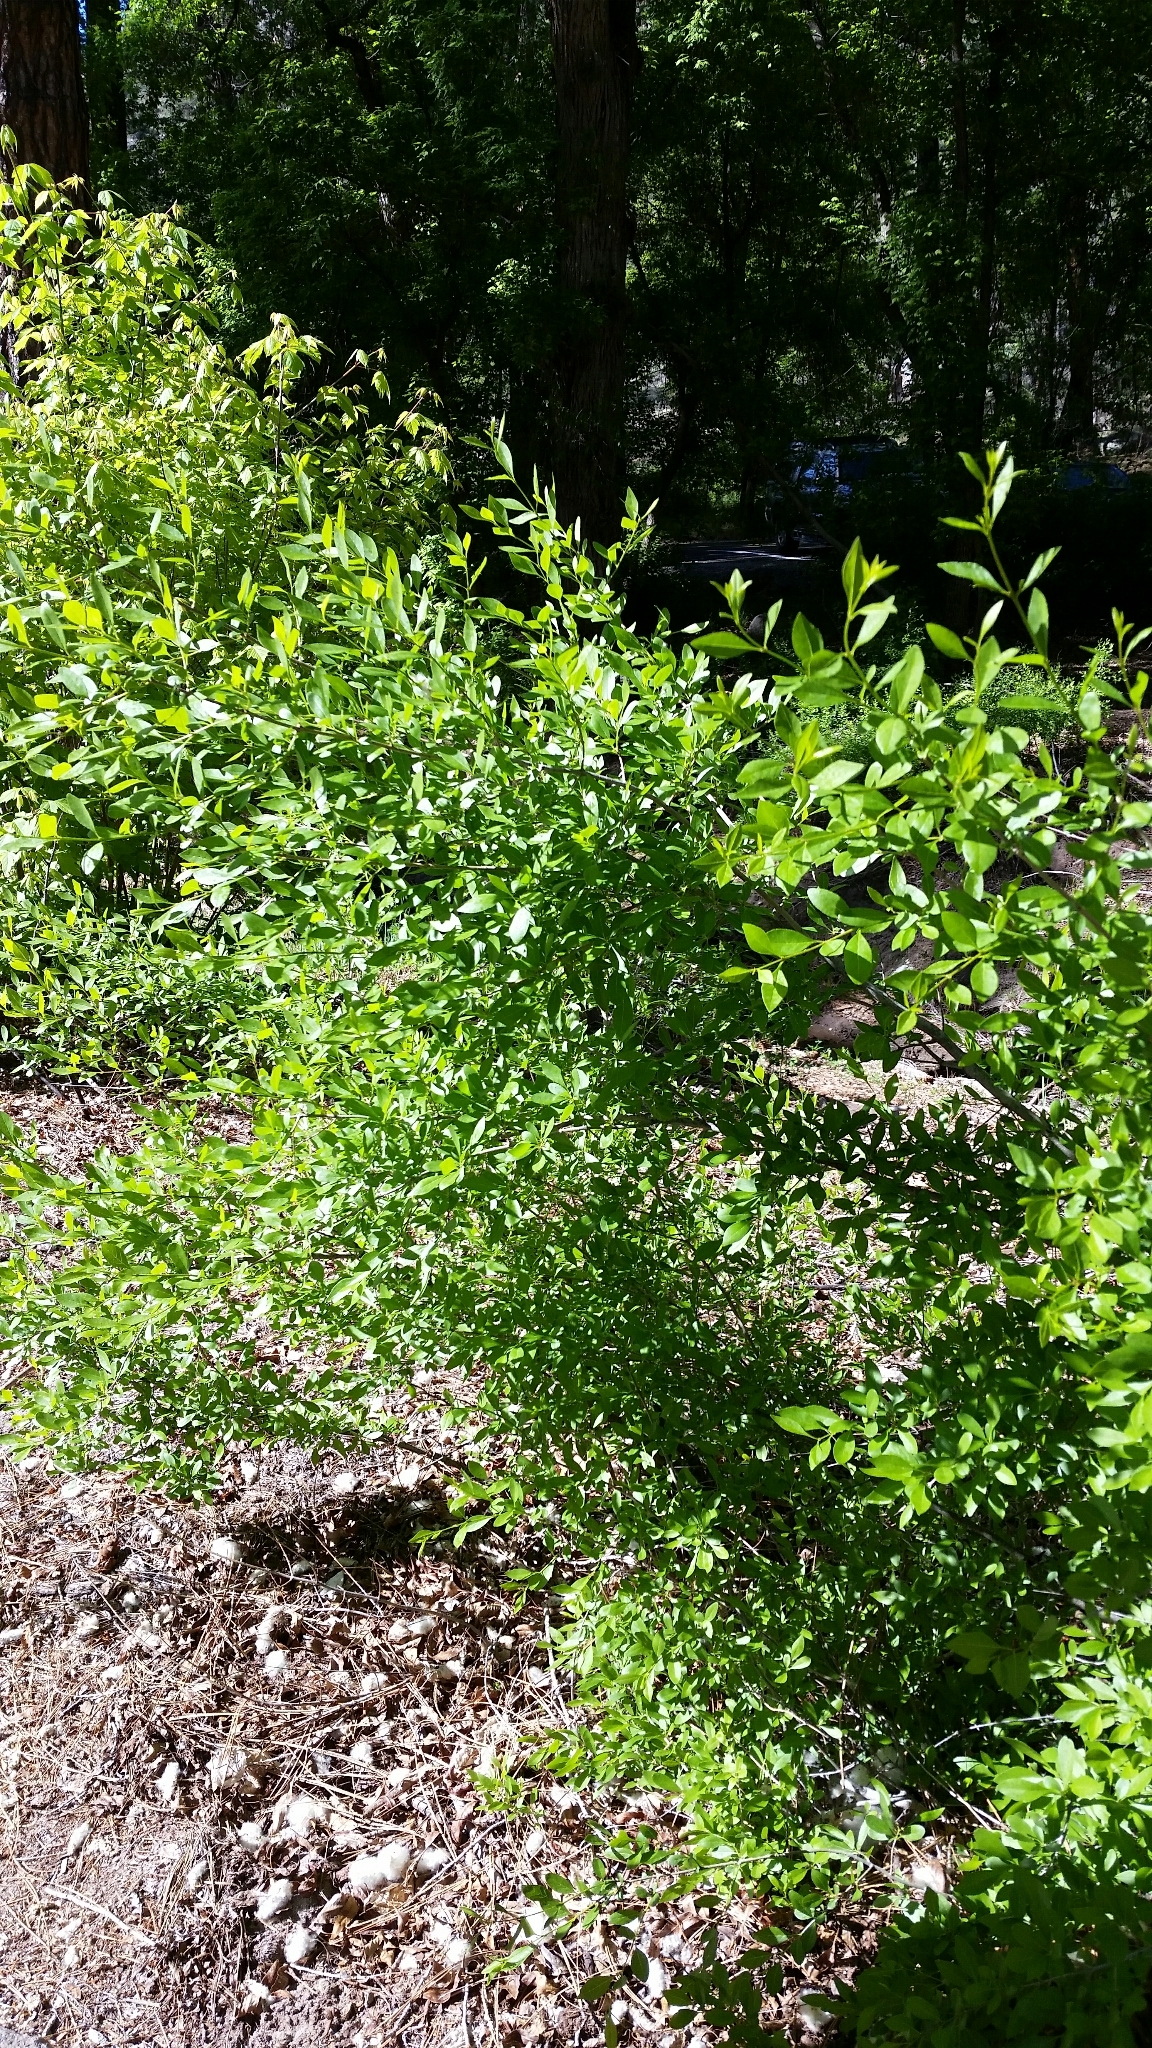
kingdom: Plantae
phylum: Tracheophyta
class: Magnoliopsida
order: Lamiales
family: Oleaceae
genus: Forestiera
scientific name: Forestiera pubescens
